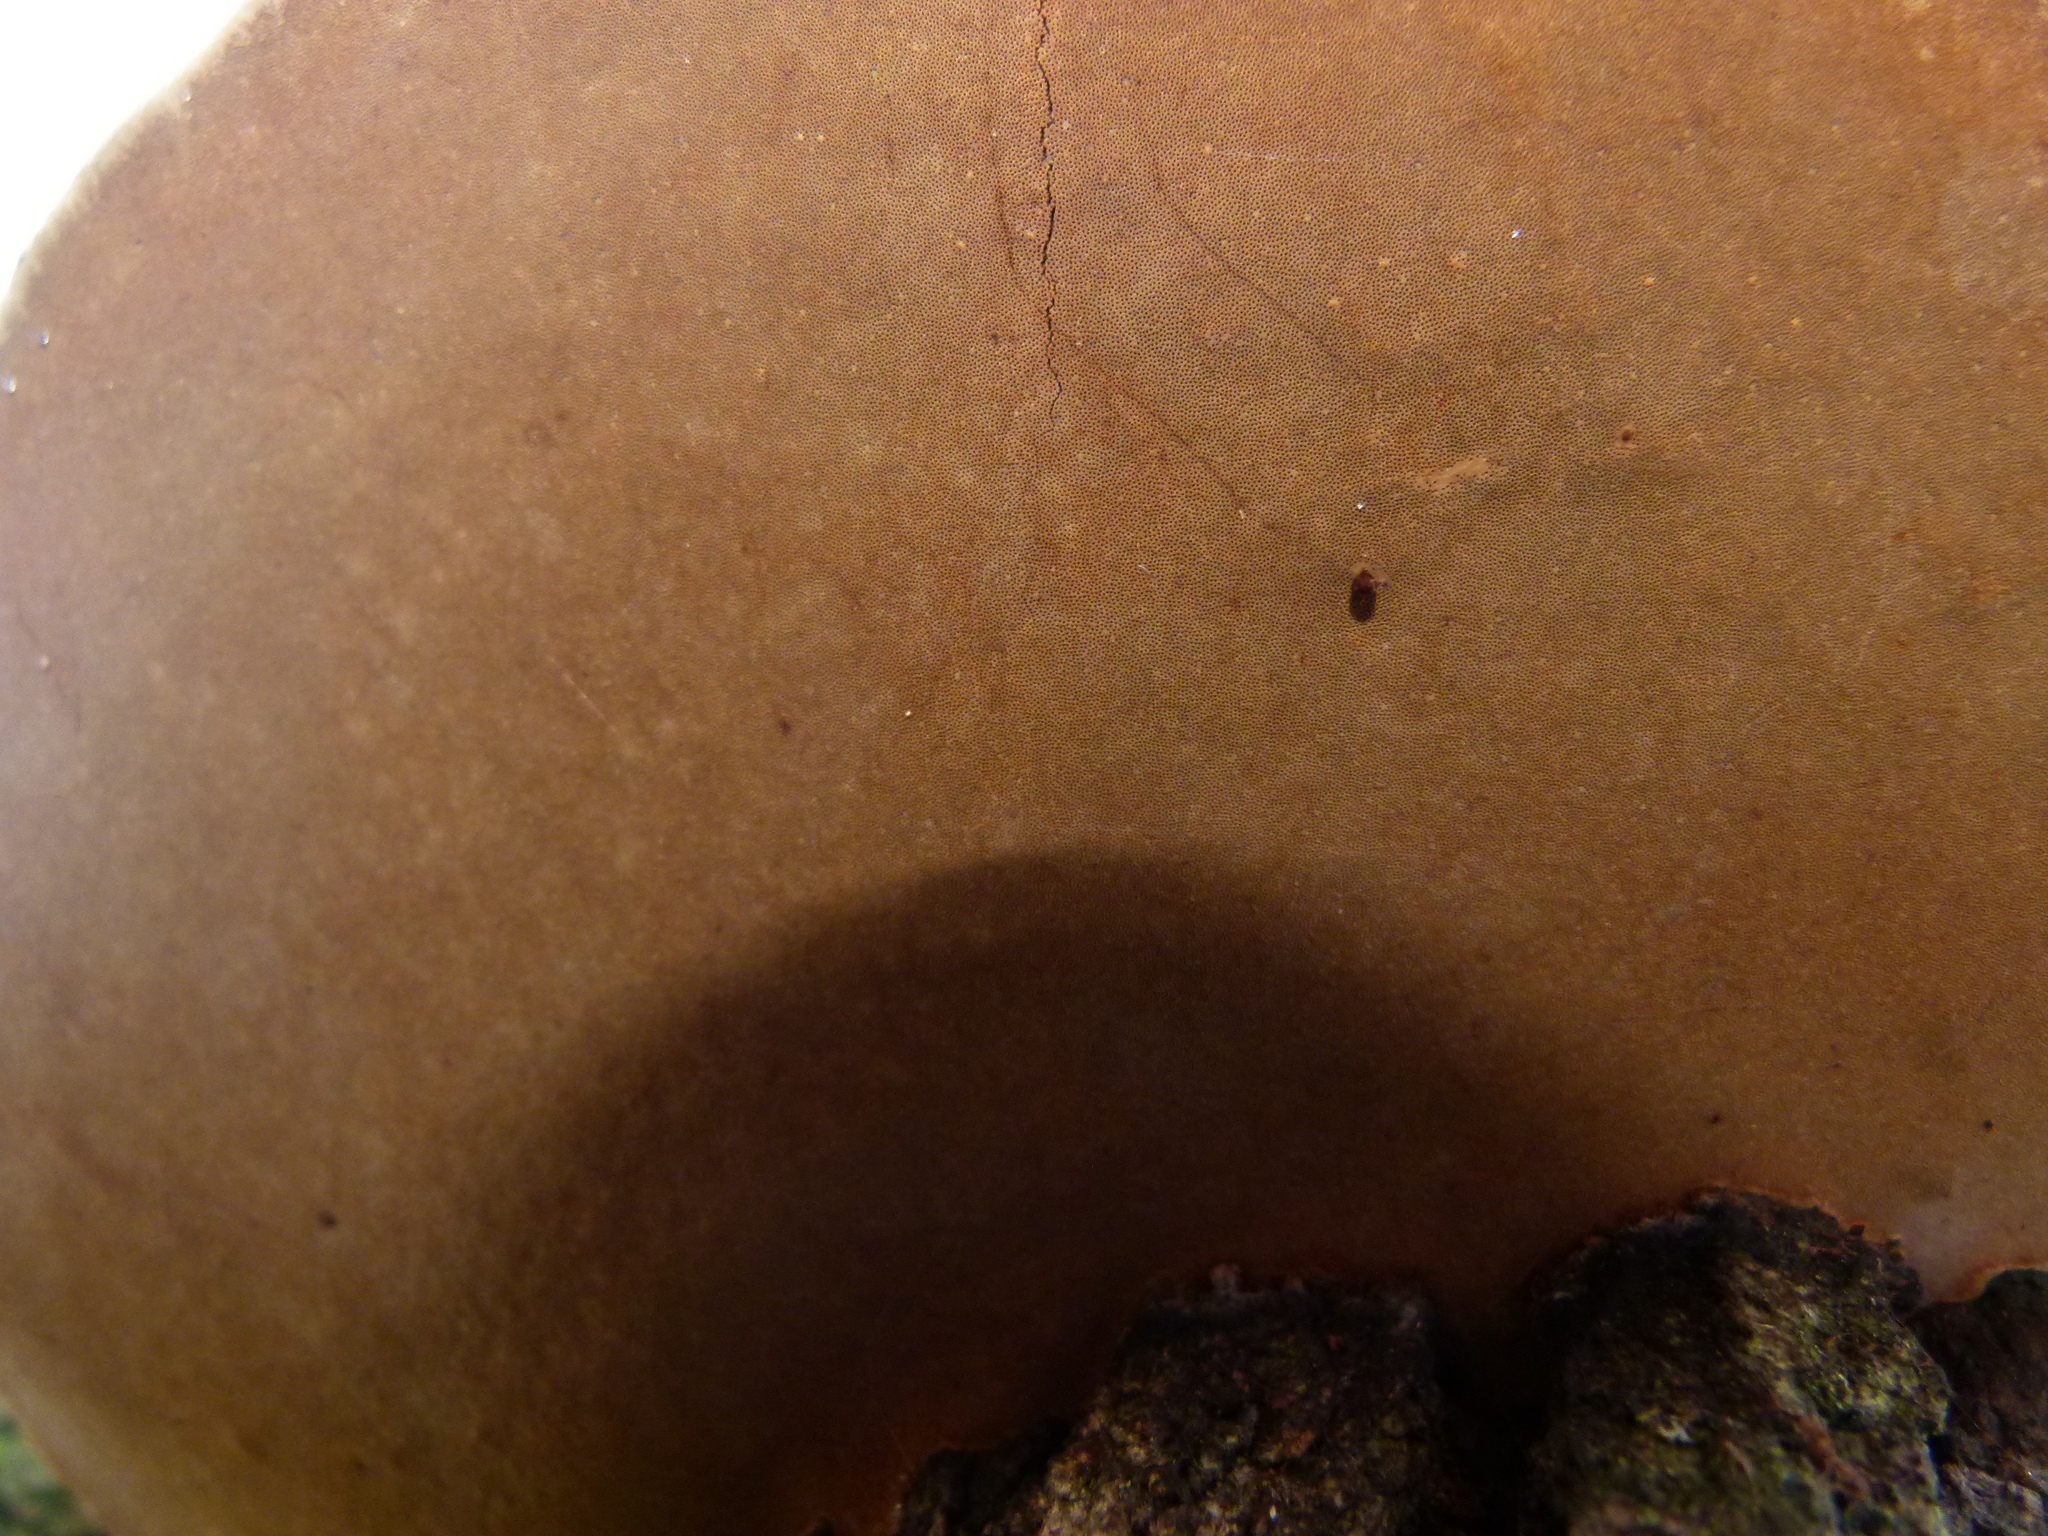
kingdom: Fungi
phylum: Basidiomycota
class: Agaricomycetes
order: Hymenochaetales
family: Hymenochaetaceae
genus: Phellinus
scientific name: Phellinus robiniae
